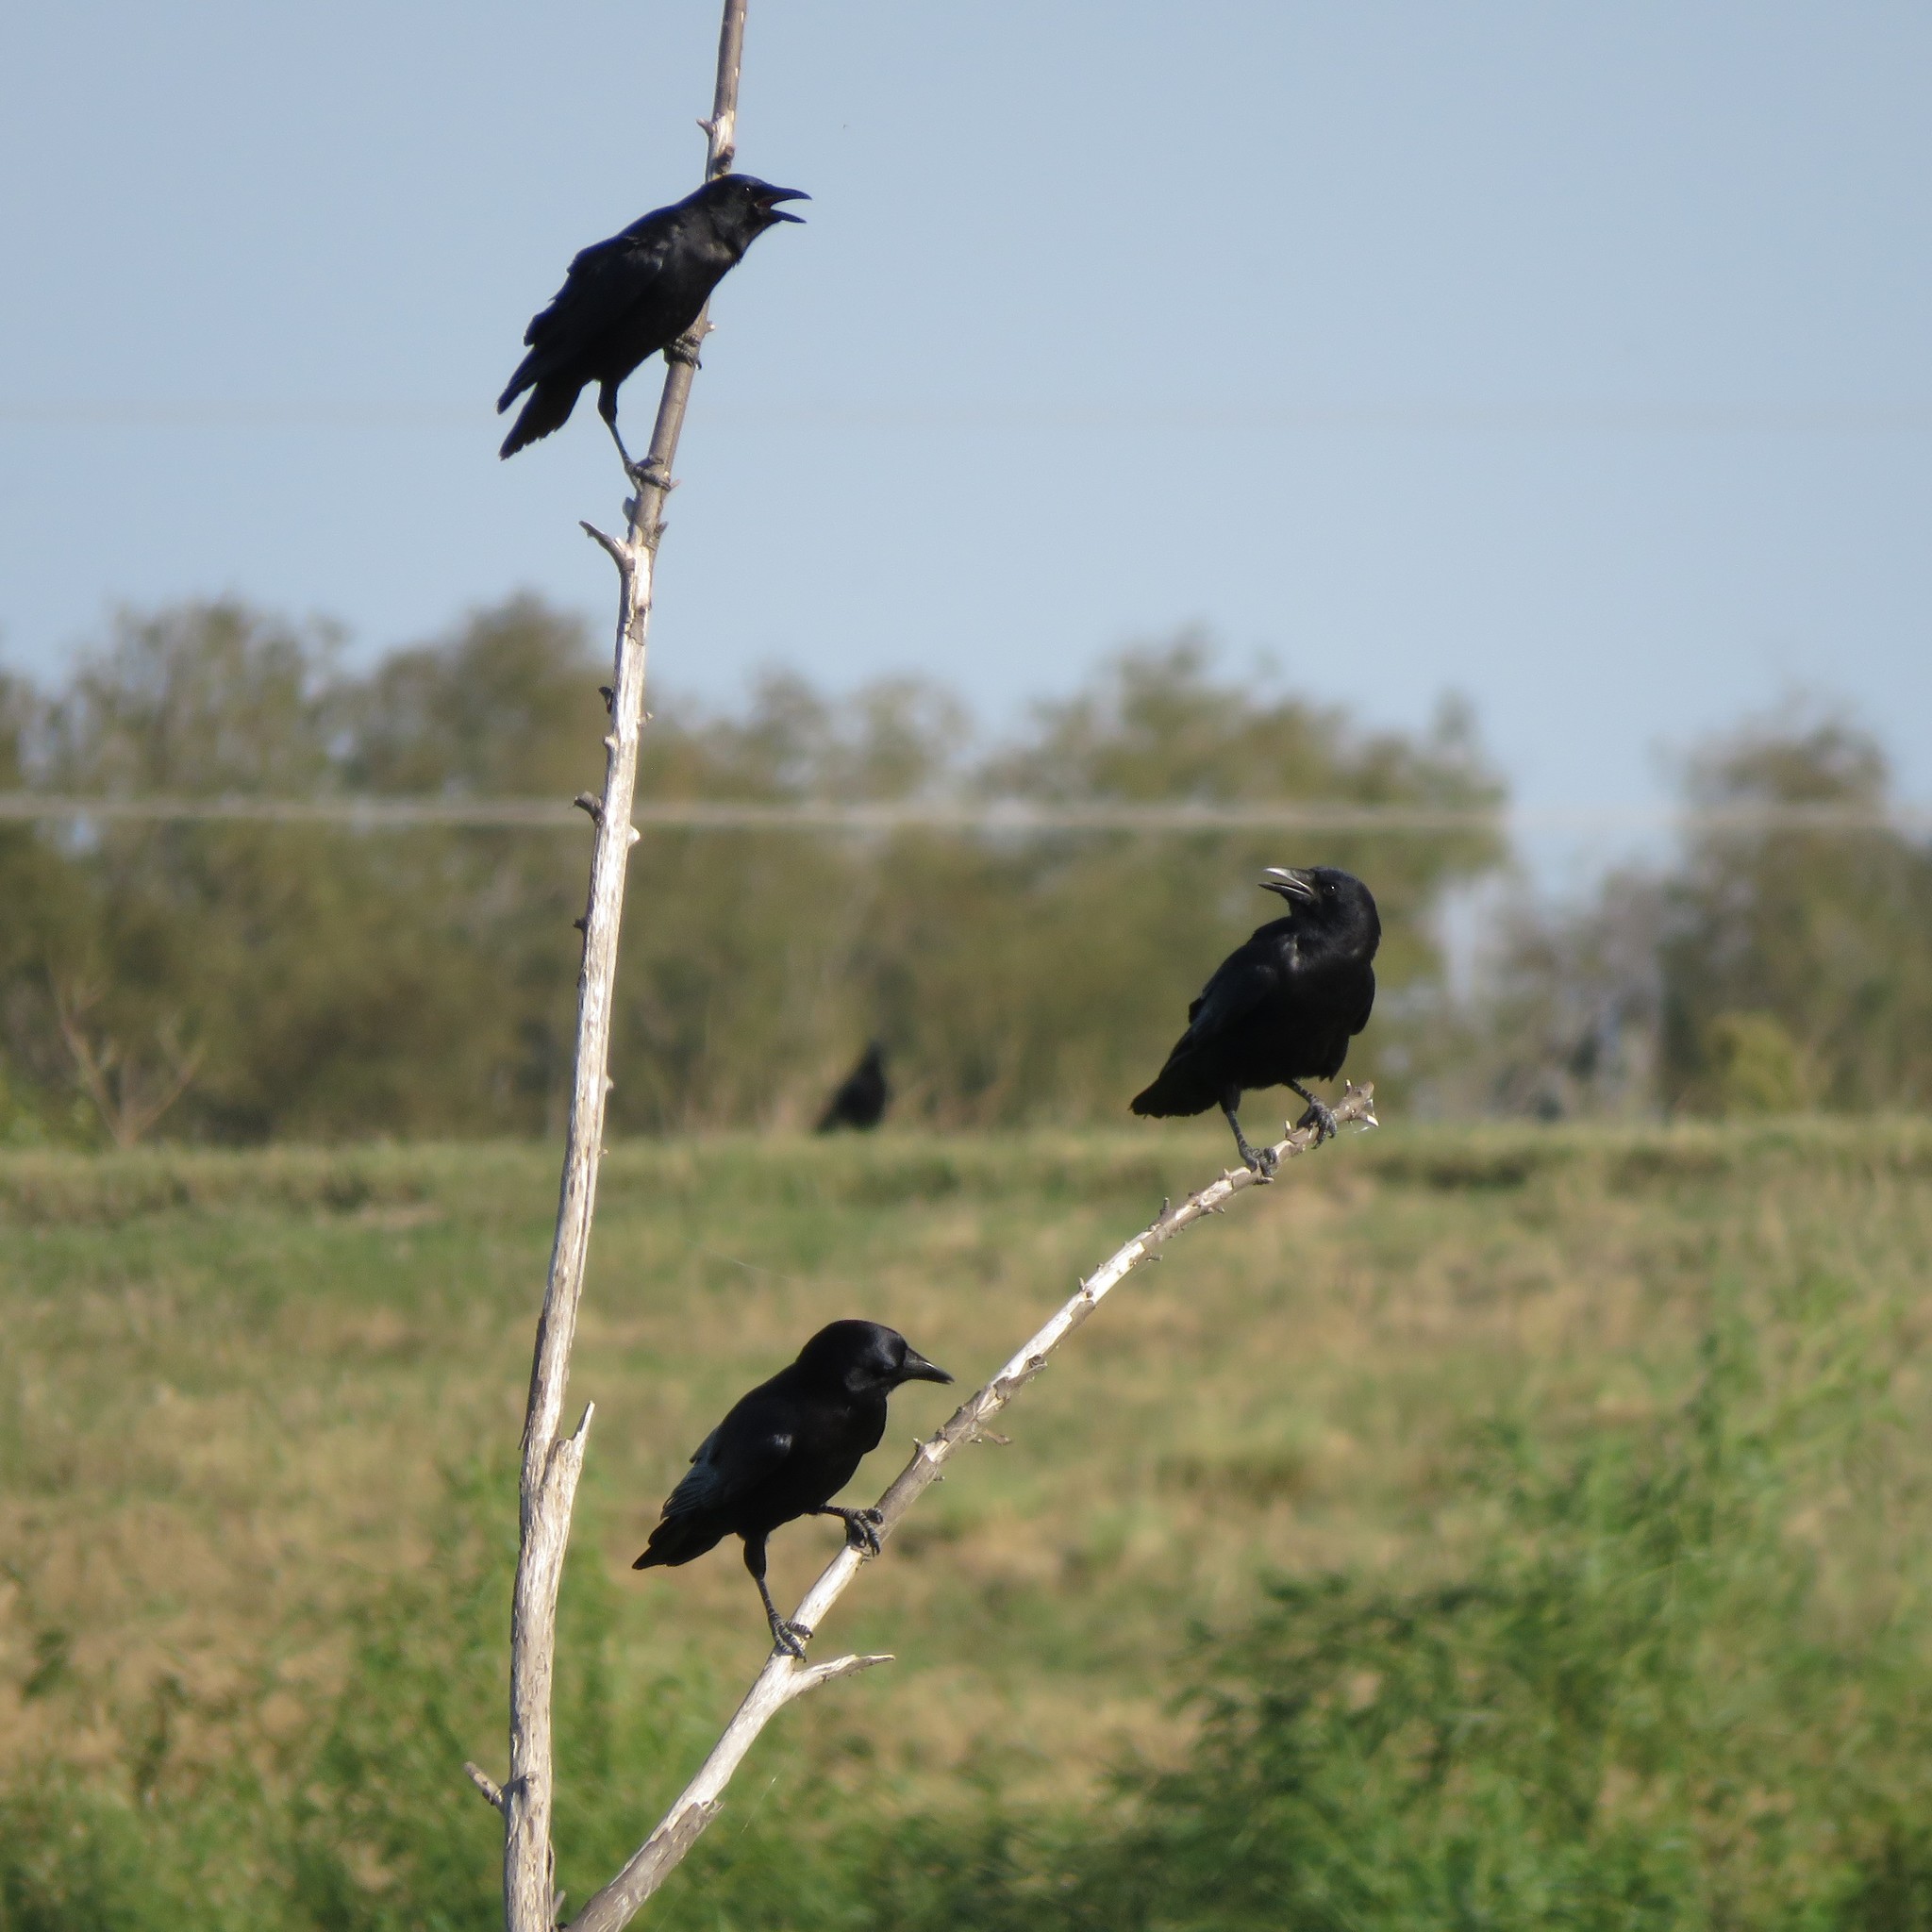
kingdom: Animalia
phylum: Chordata
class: Aves
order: Passeriformes
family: Corvidae
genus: Corvus
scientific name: Corvus brachyrhynchos
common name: American crow
